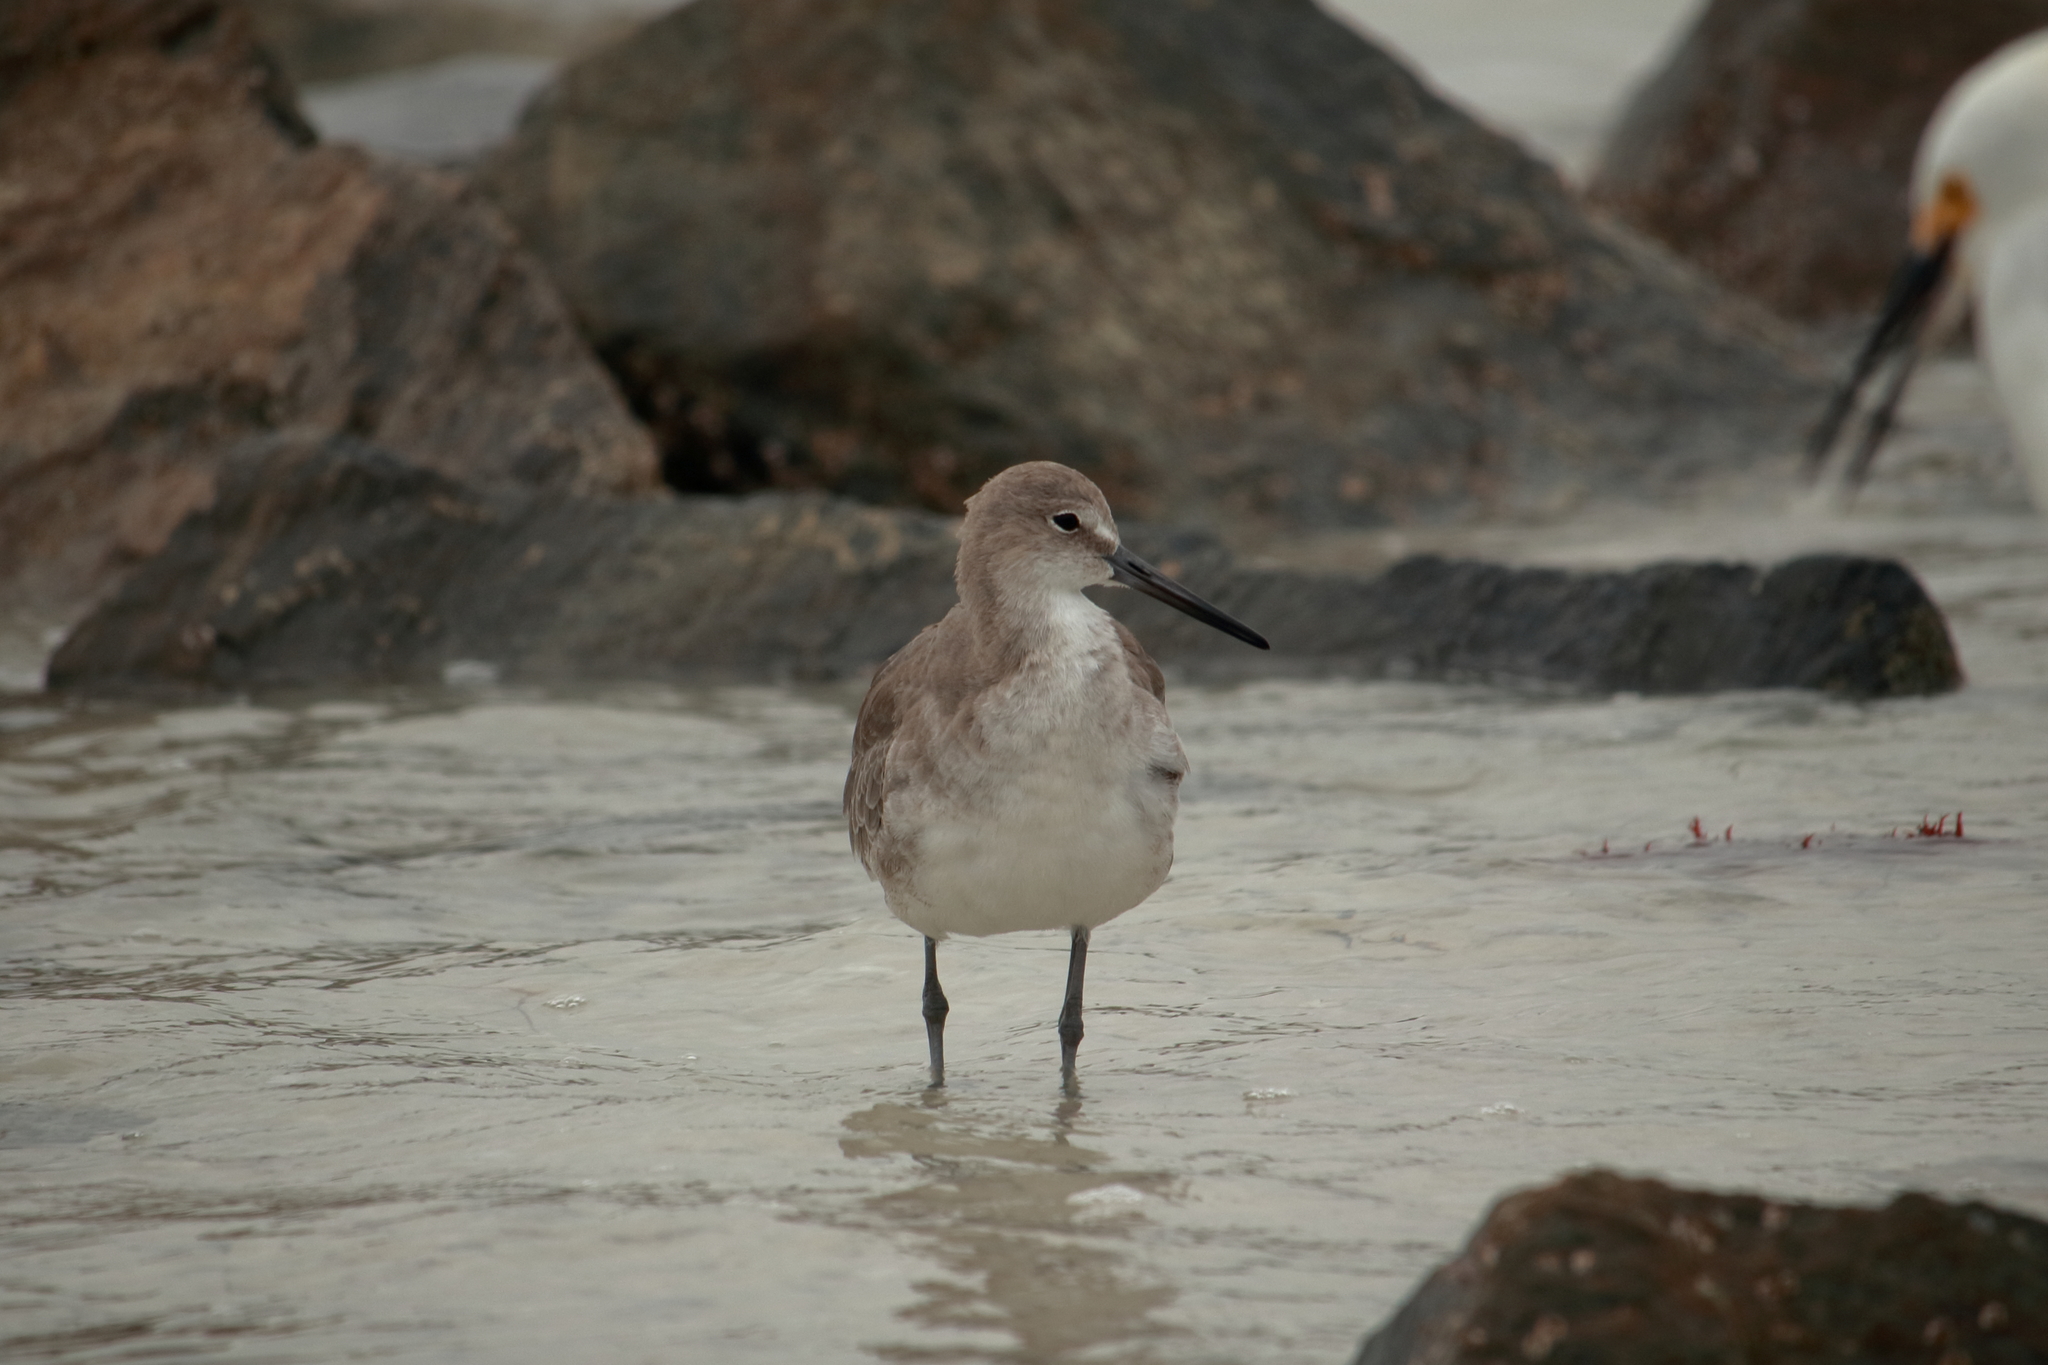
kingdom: Animalia
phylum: Chordata
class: Aves
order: Charadriiformes
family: Scolopacidae
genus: Tringa
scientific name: Tringa semipalmata
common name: Willet
